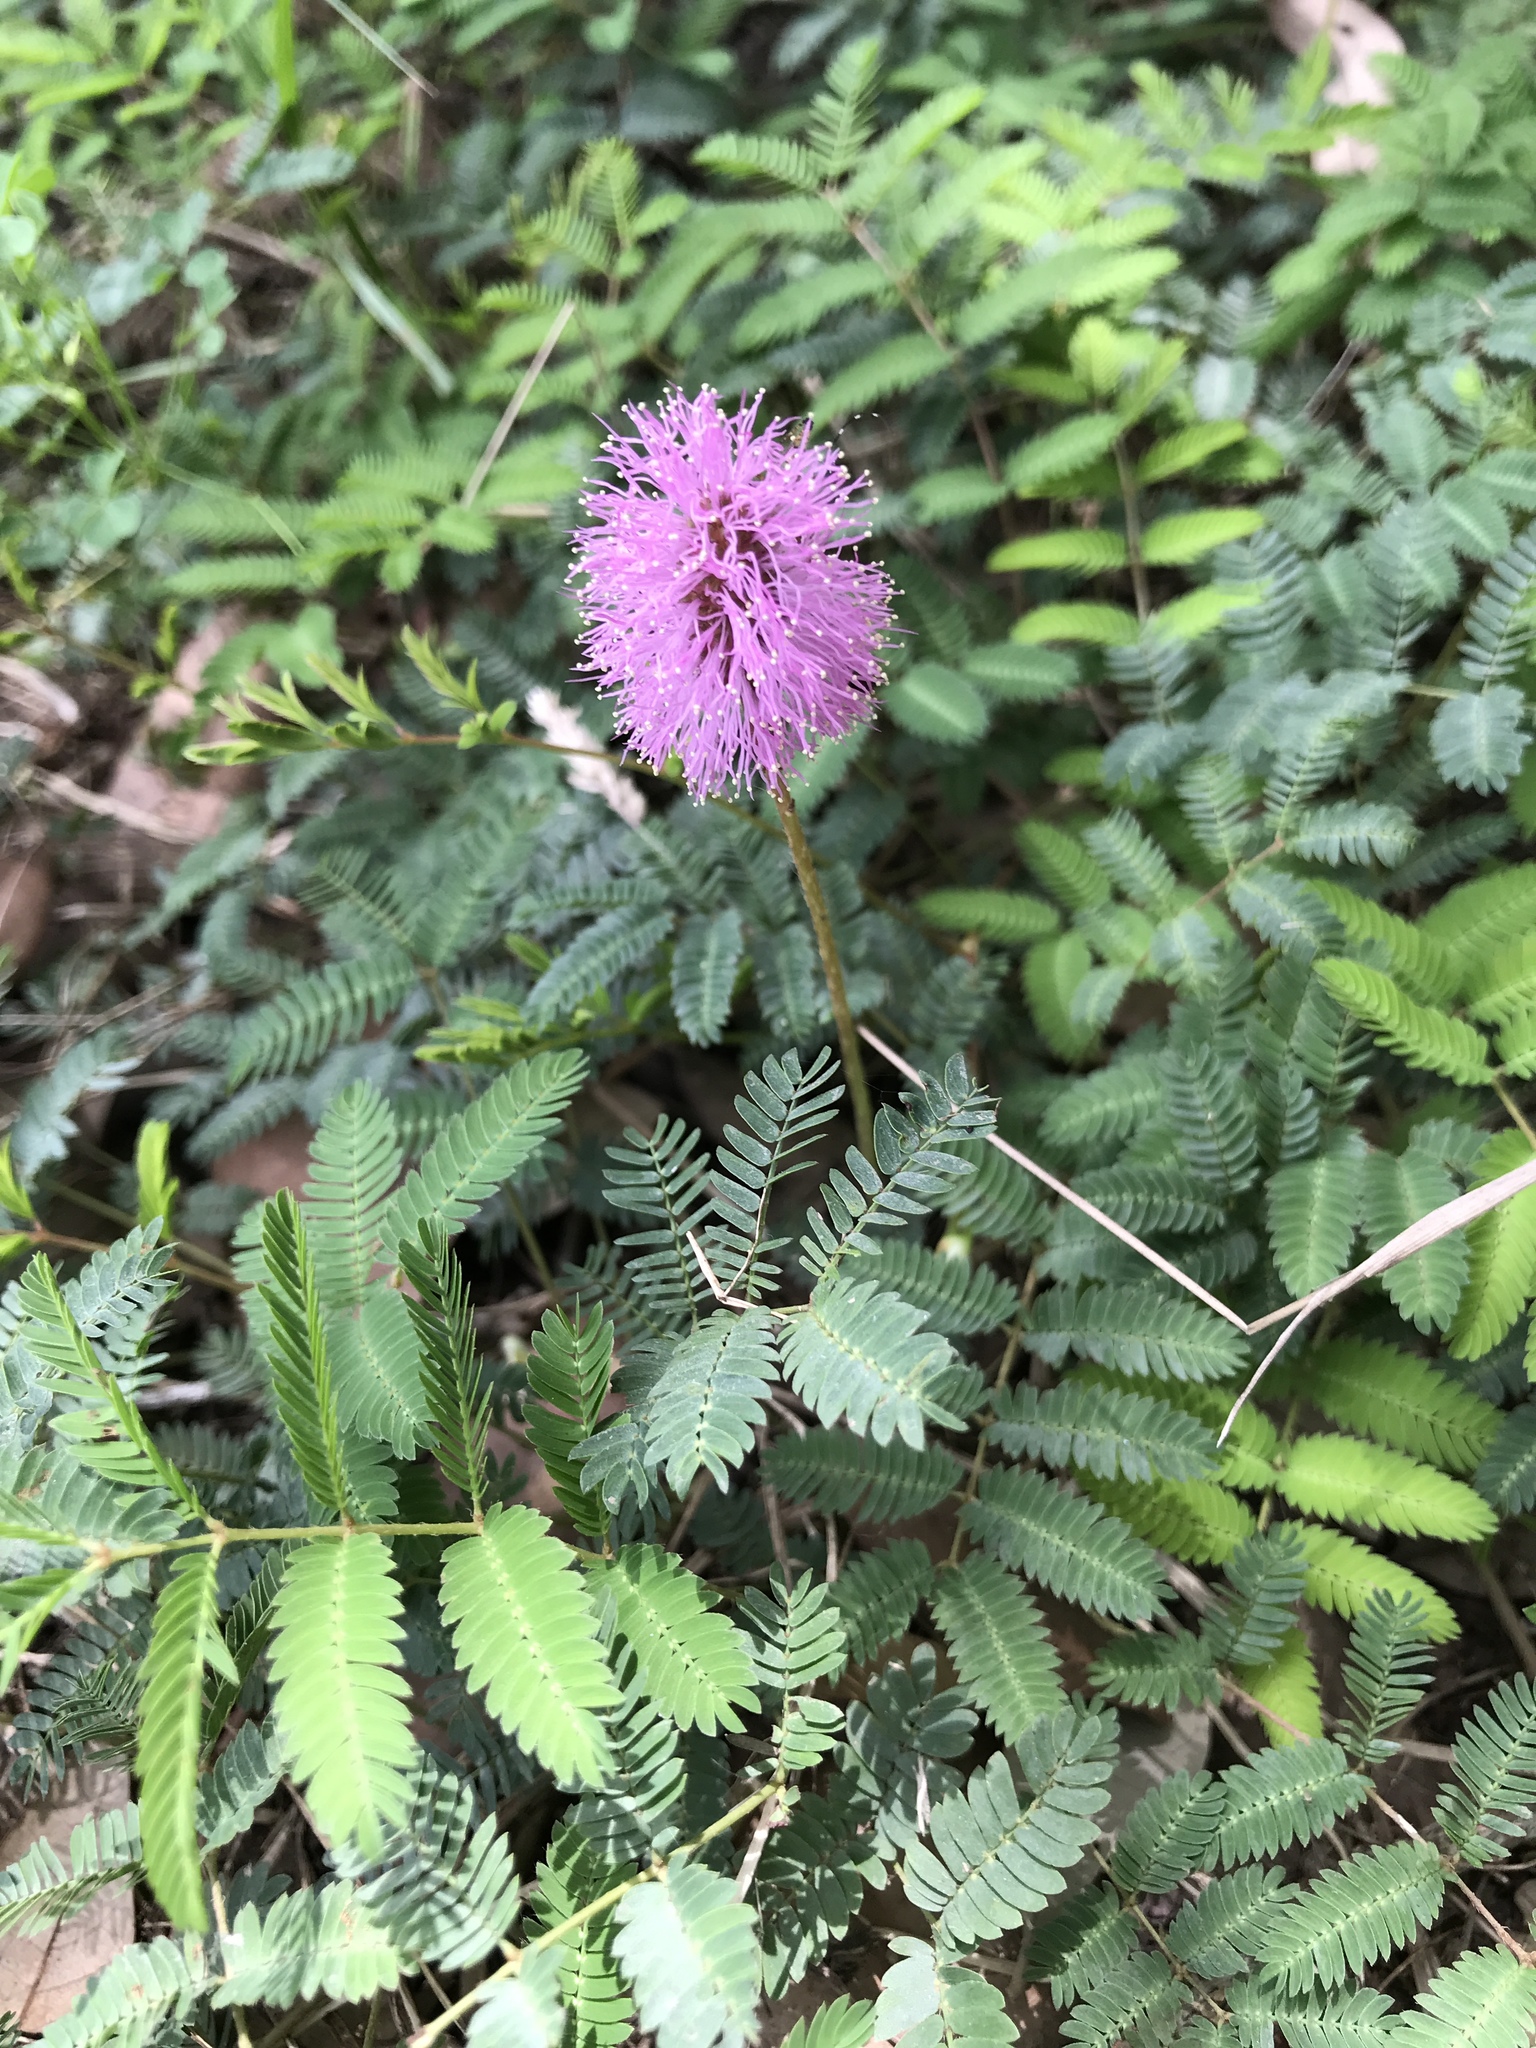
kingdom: Plantae
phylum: Tracheophyta
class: Magnoliopsida
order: Fabales
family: Fabaceae
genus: Mimosa
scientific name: Mimosa strigillosa
